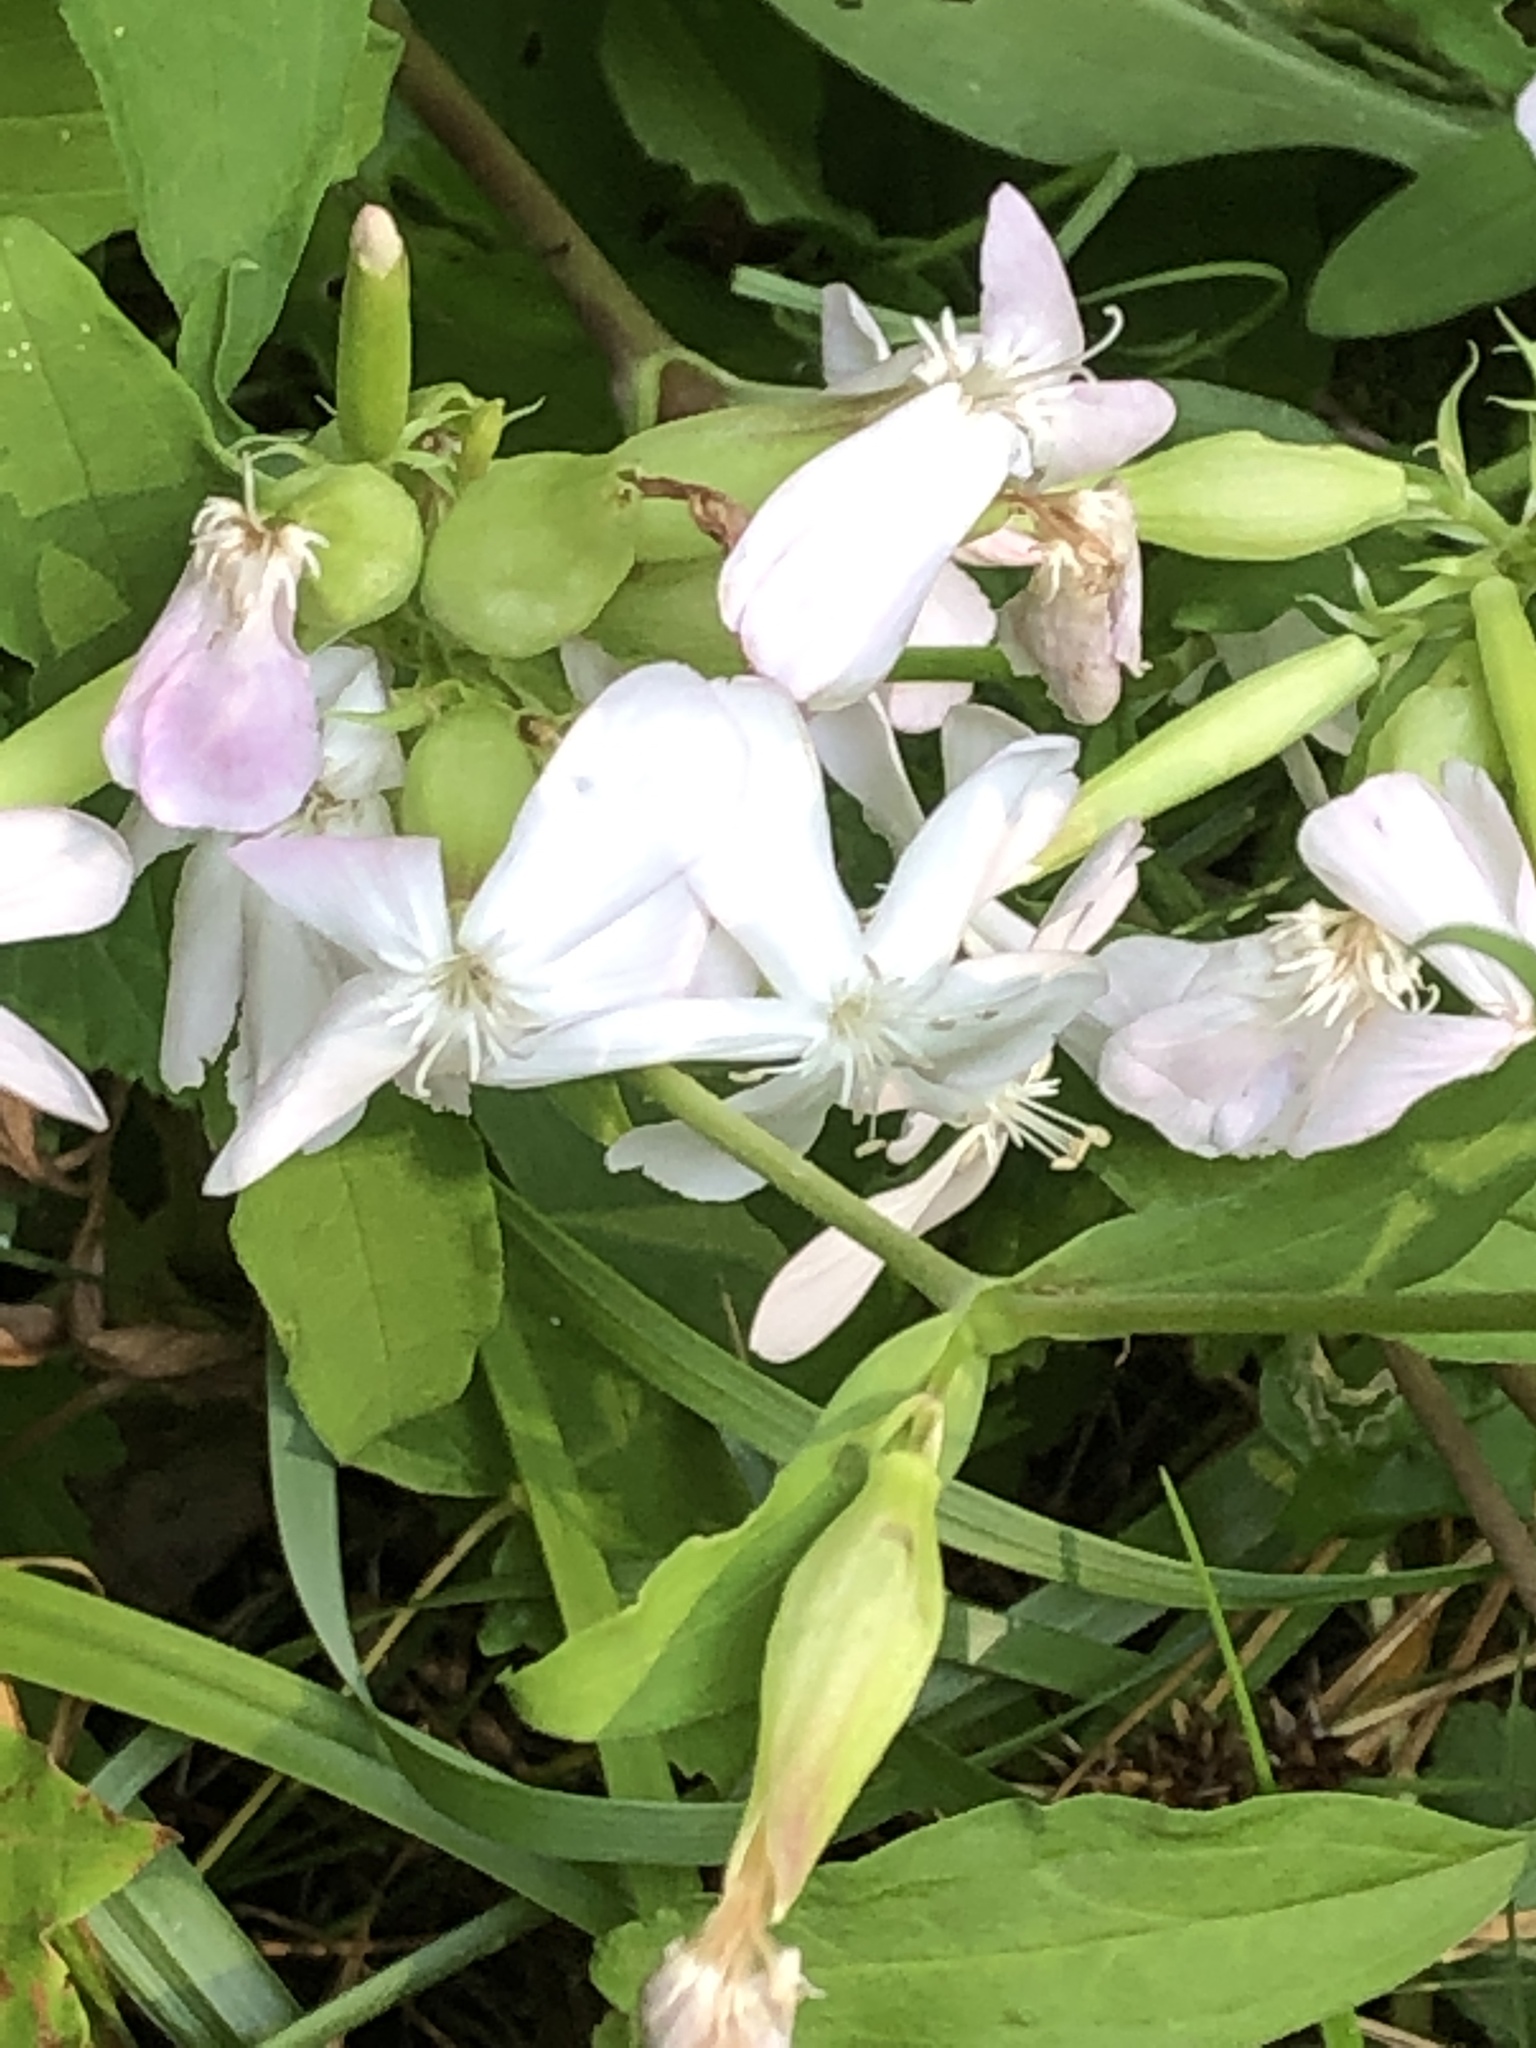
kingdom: Plantae
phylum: Tracheophyta
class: Magnoliopsida
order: Caryophyllales
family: Caryophyllaceae
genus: Saponaria
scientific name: Saponaria officinalis
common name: Soapwort
